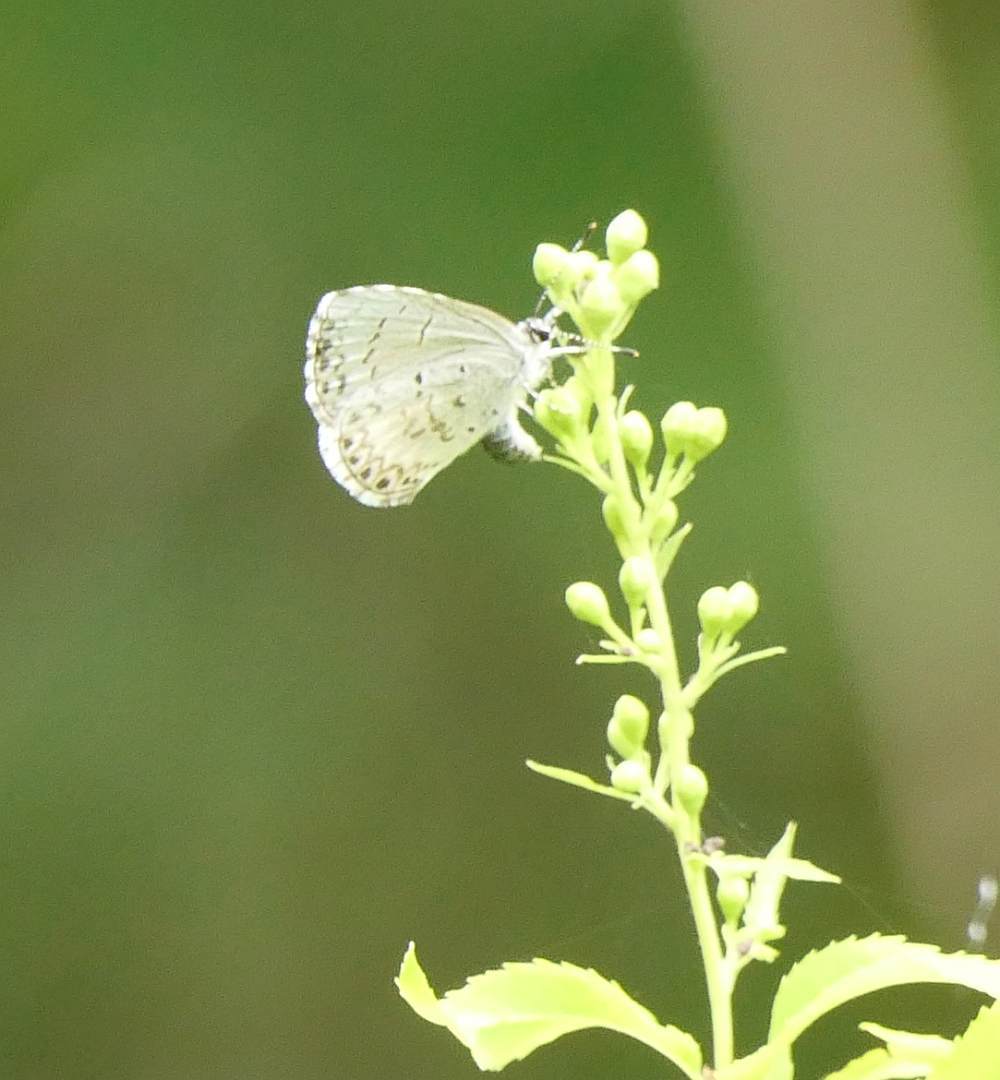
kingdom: Animalia
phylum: Arthropoda
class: Insecta
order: Lepidoptera
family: Lycaenidae
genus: Celastrina
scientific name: Celastrina lucia
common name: Lucia azure
